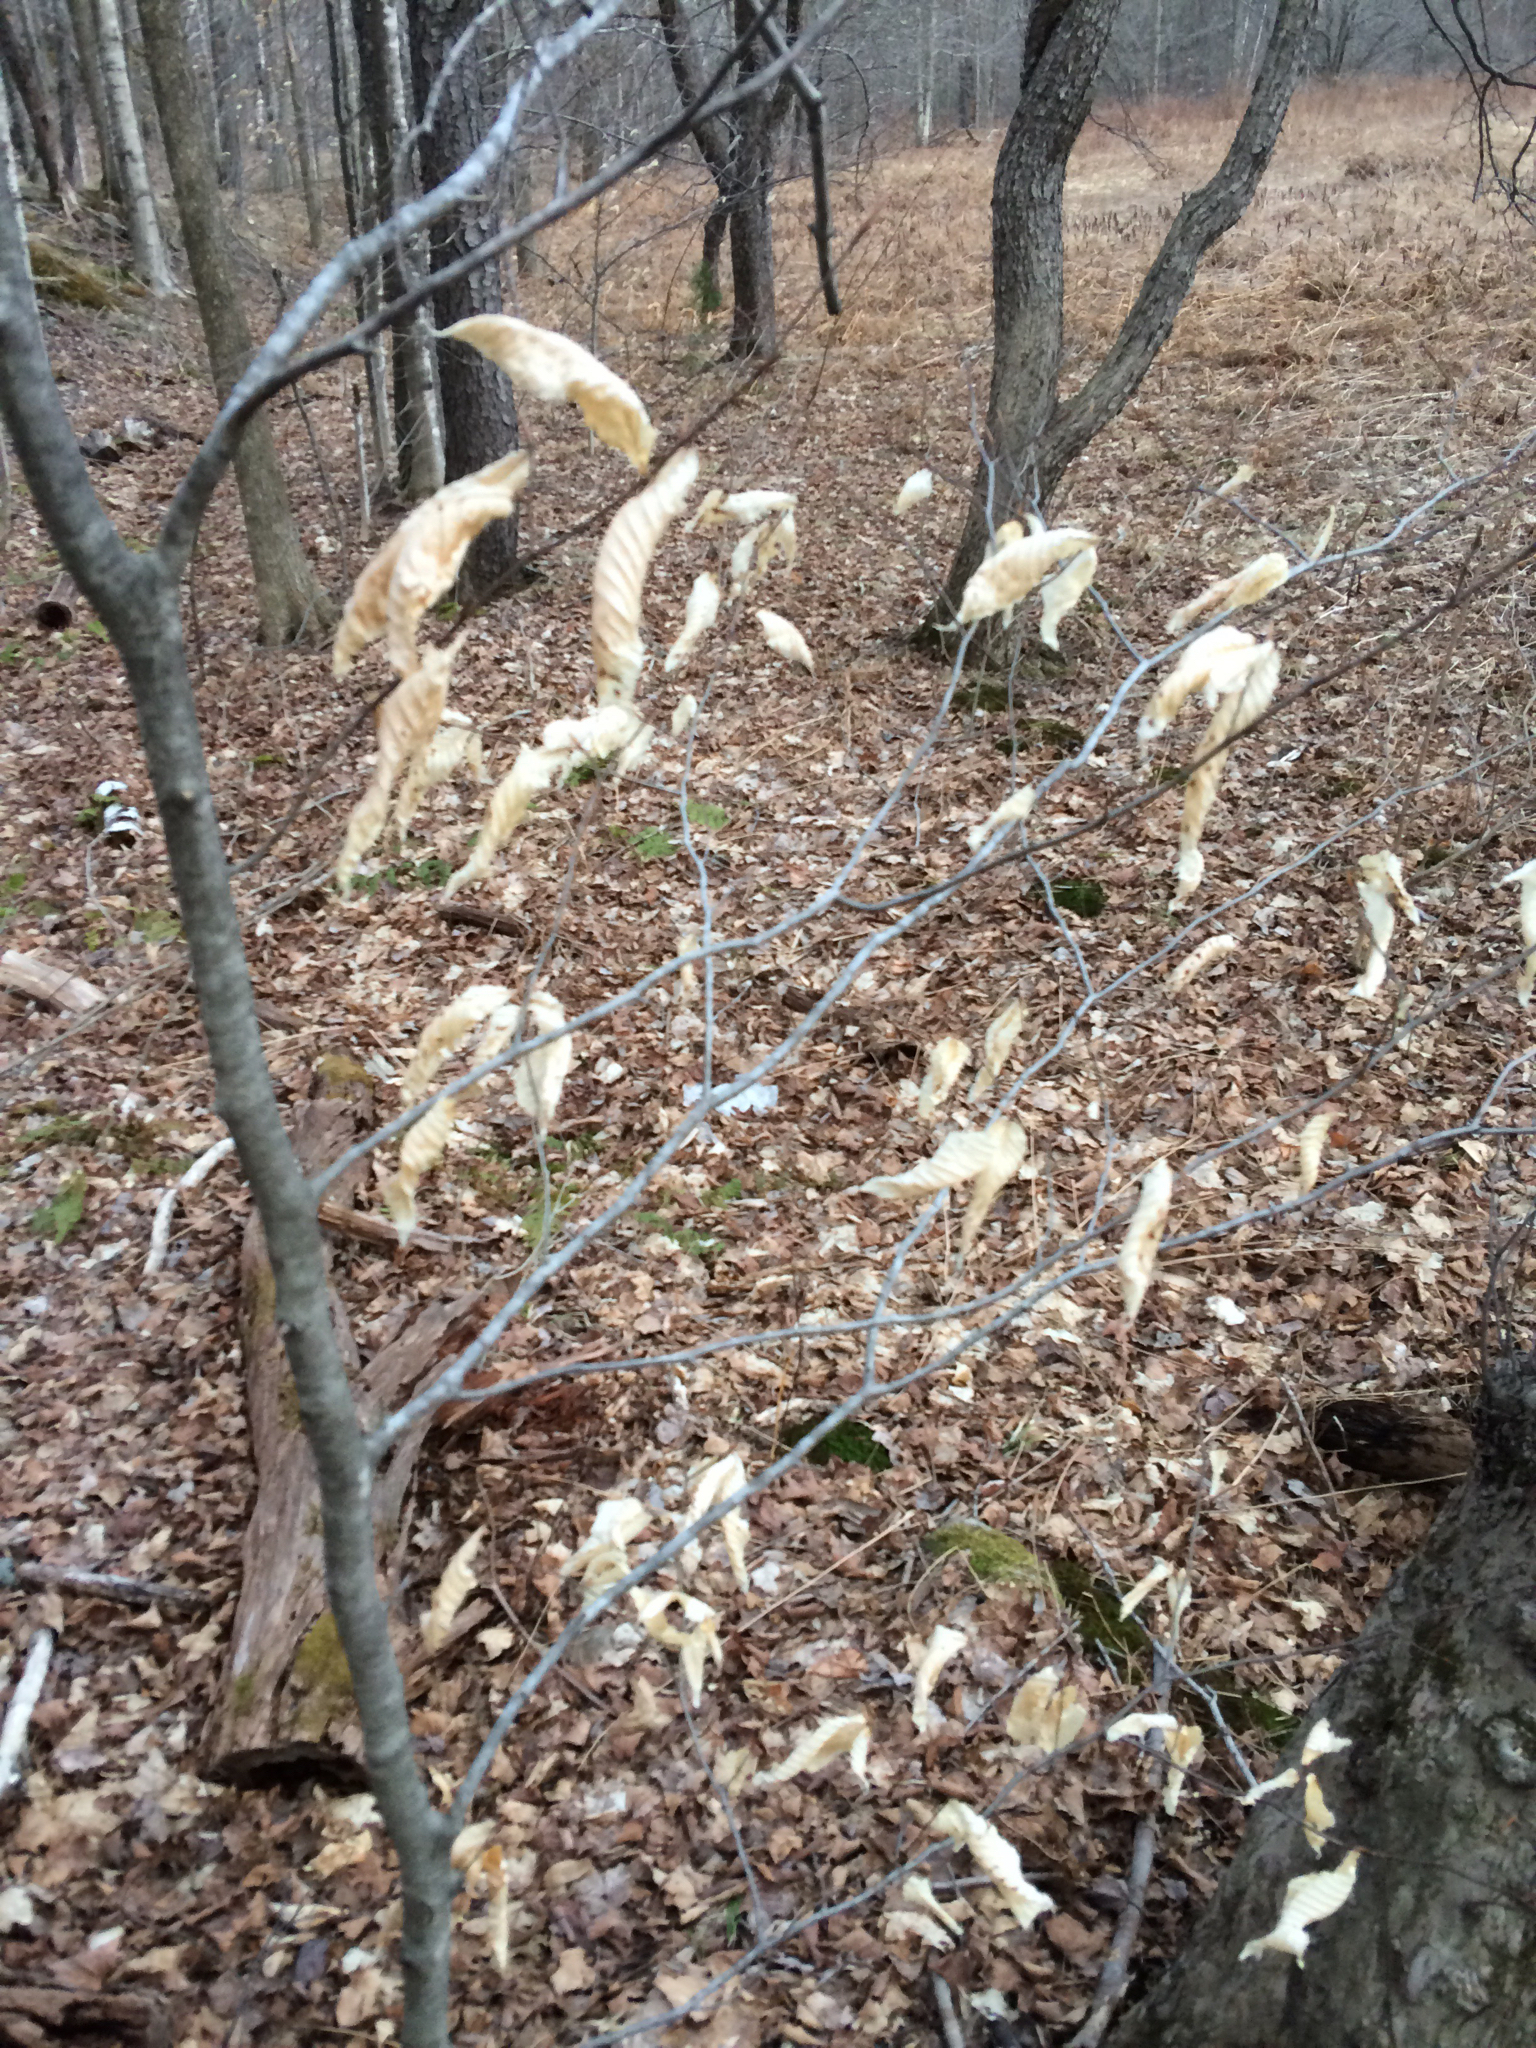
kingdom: Plantae
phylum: Tracheophyta
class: Magnoliopsida
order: Fagales
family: Fagaceae
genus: Fagus
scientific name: Fagus grandifolia
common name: American beech
